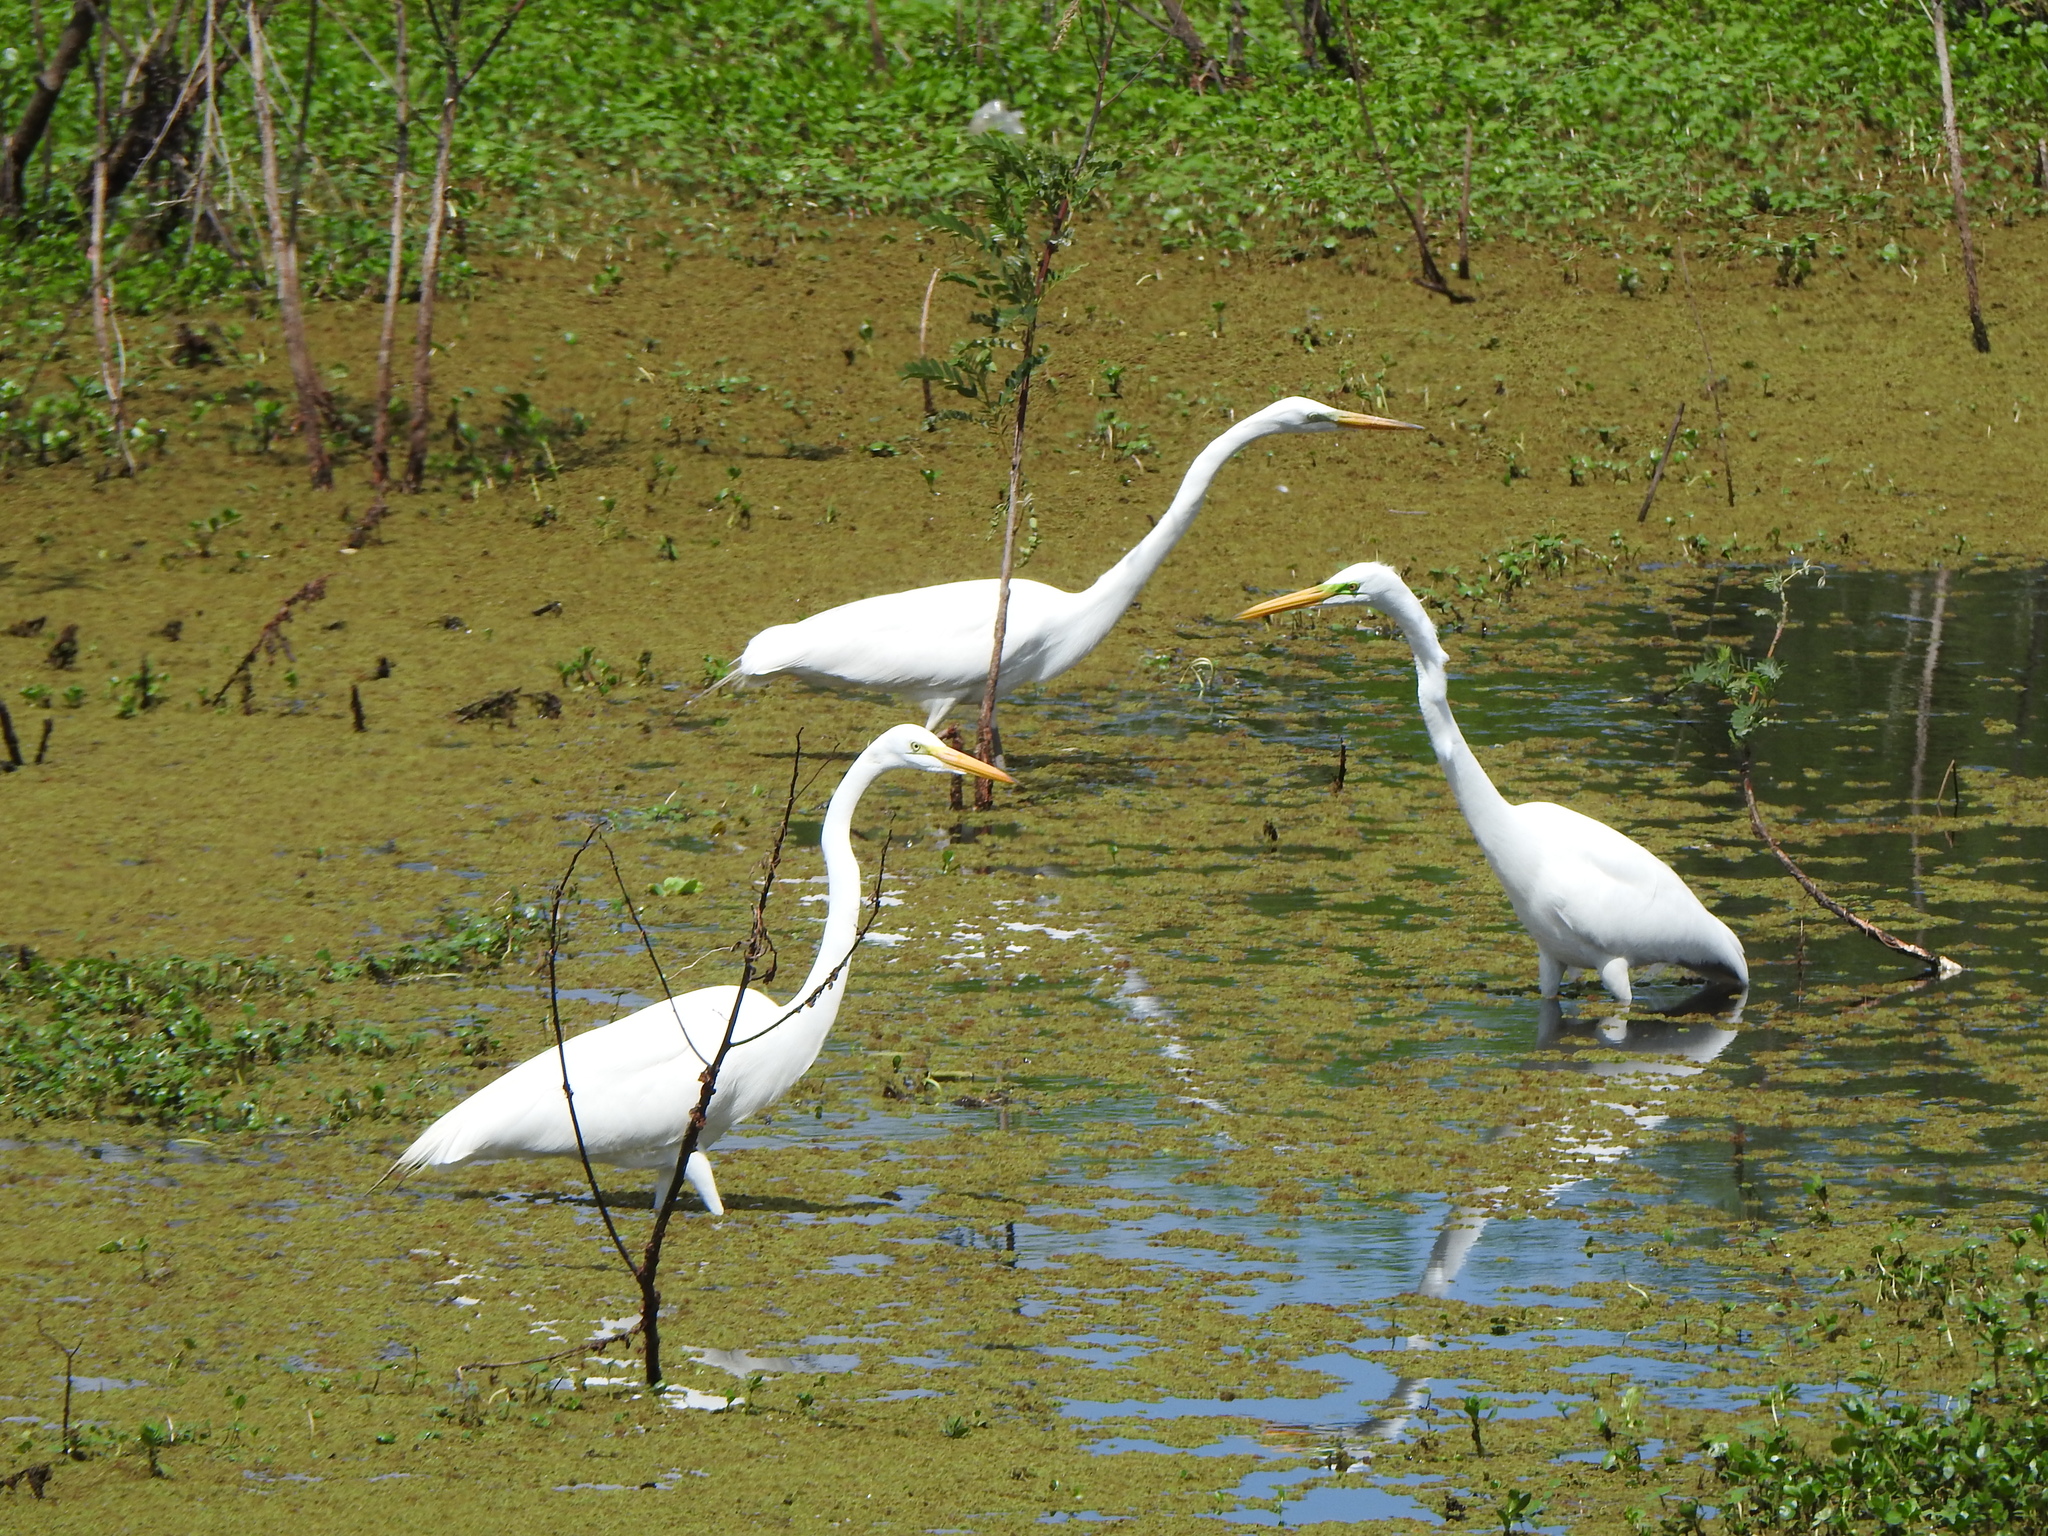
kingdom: Animalia
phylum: Chordata
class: Aves
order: Pelecaniformes
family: Ardeidae
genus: Ardea
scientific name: Ardea alba
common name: Great egret
